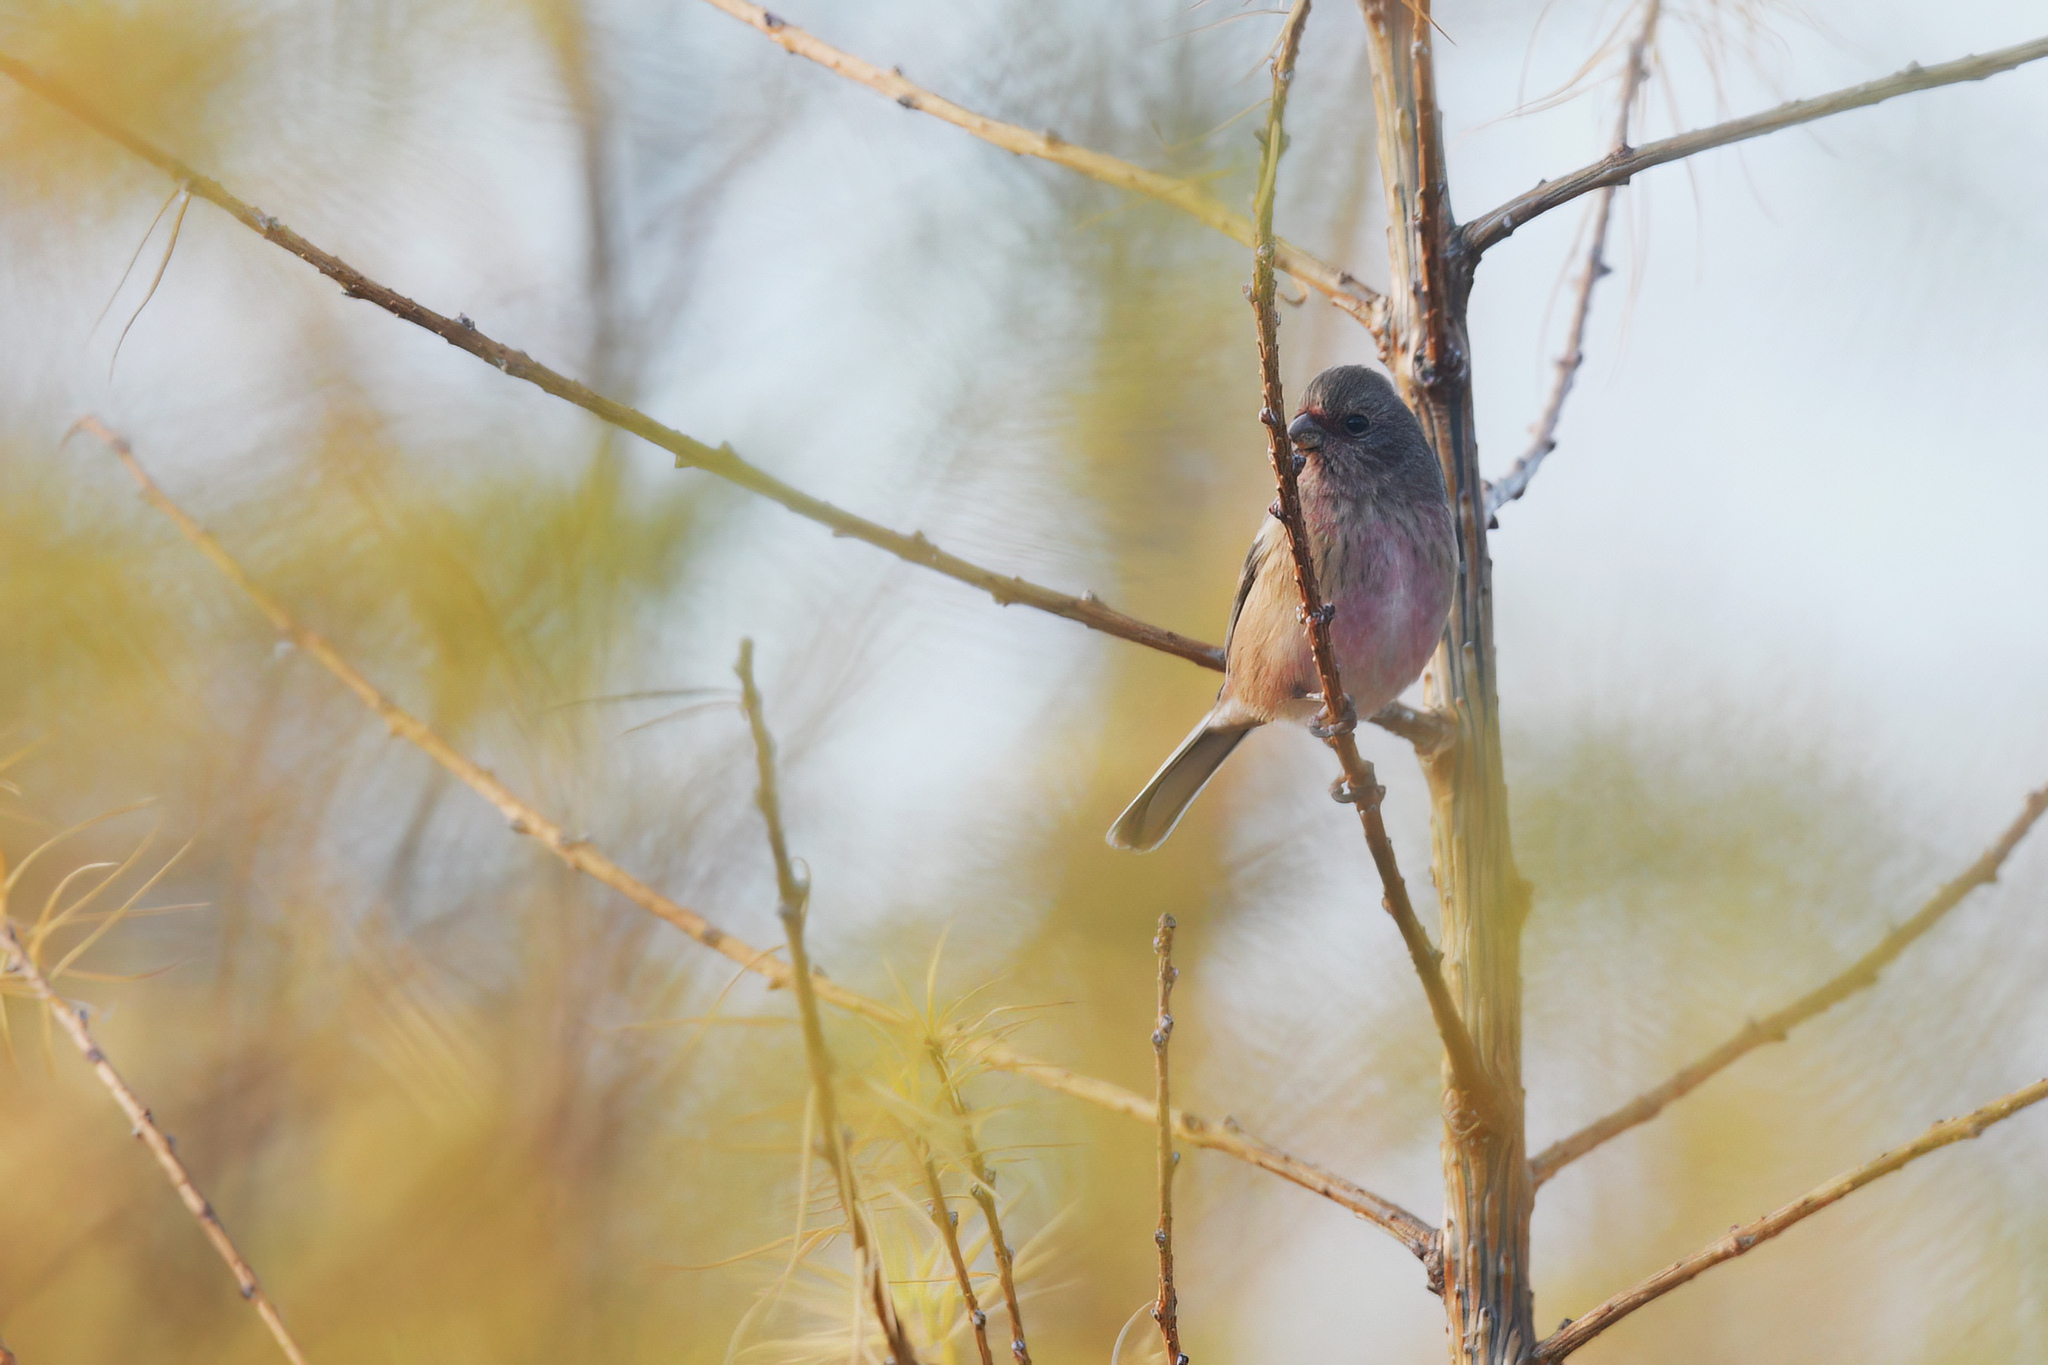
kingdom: Animalia
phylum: Chordata
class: Aves
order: Passeriformes
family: Fringillidae
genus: Carpodacus
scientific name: Carpodacus sibiricus
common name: Long-tailed rosefinch
